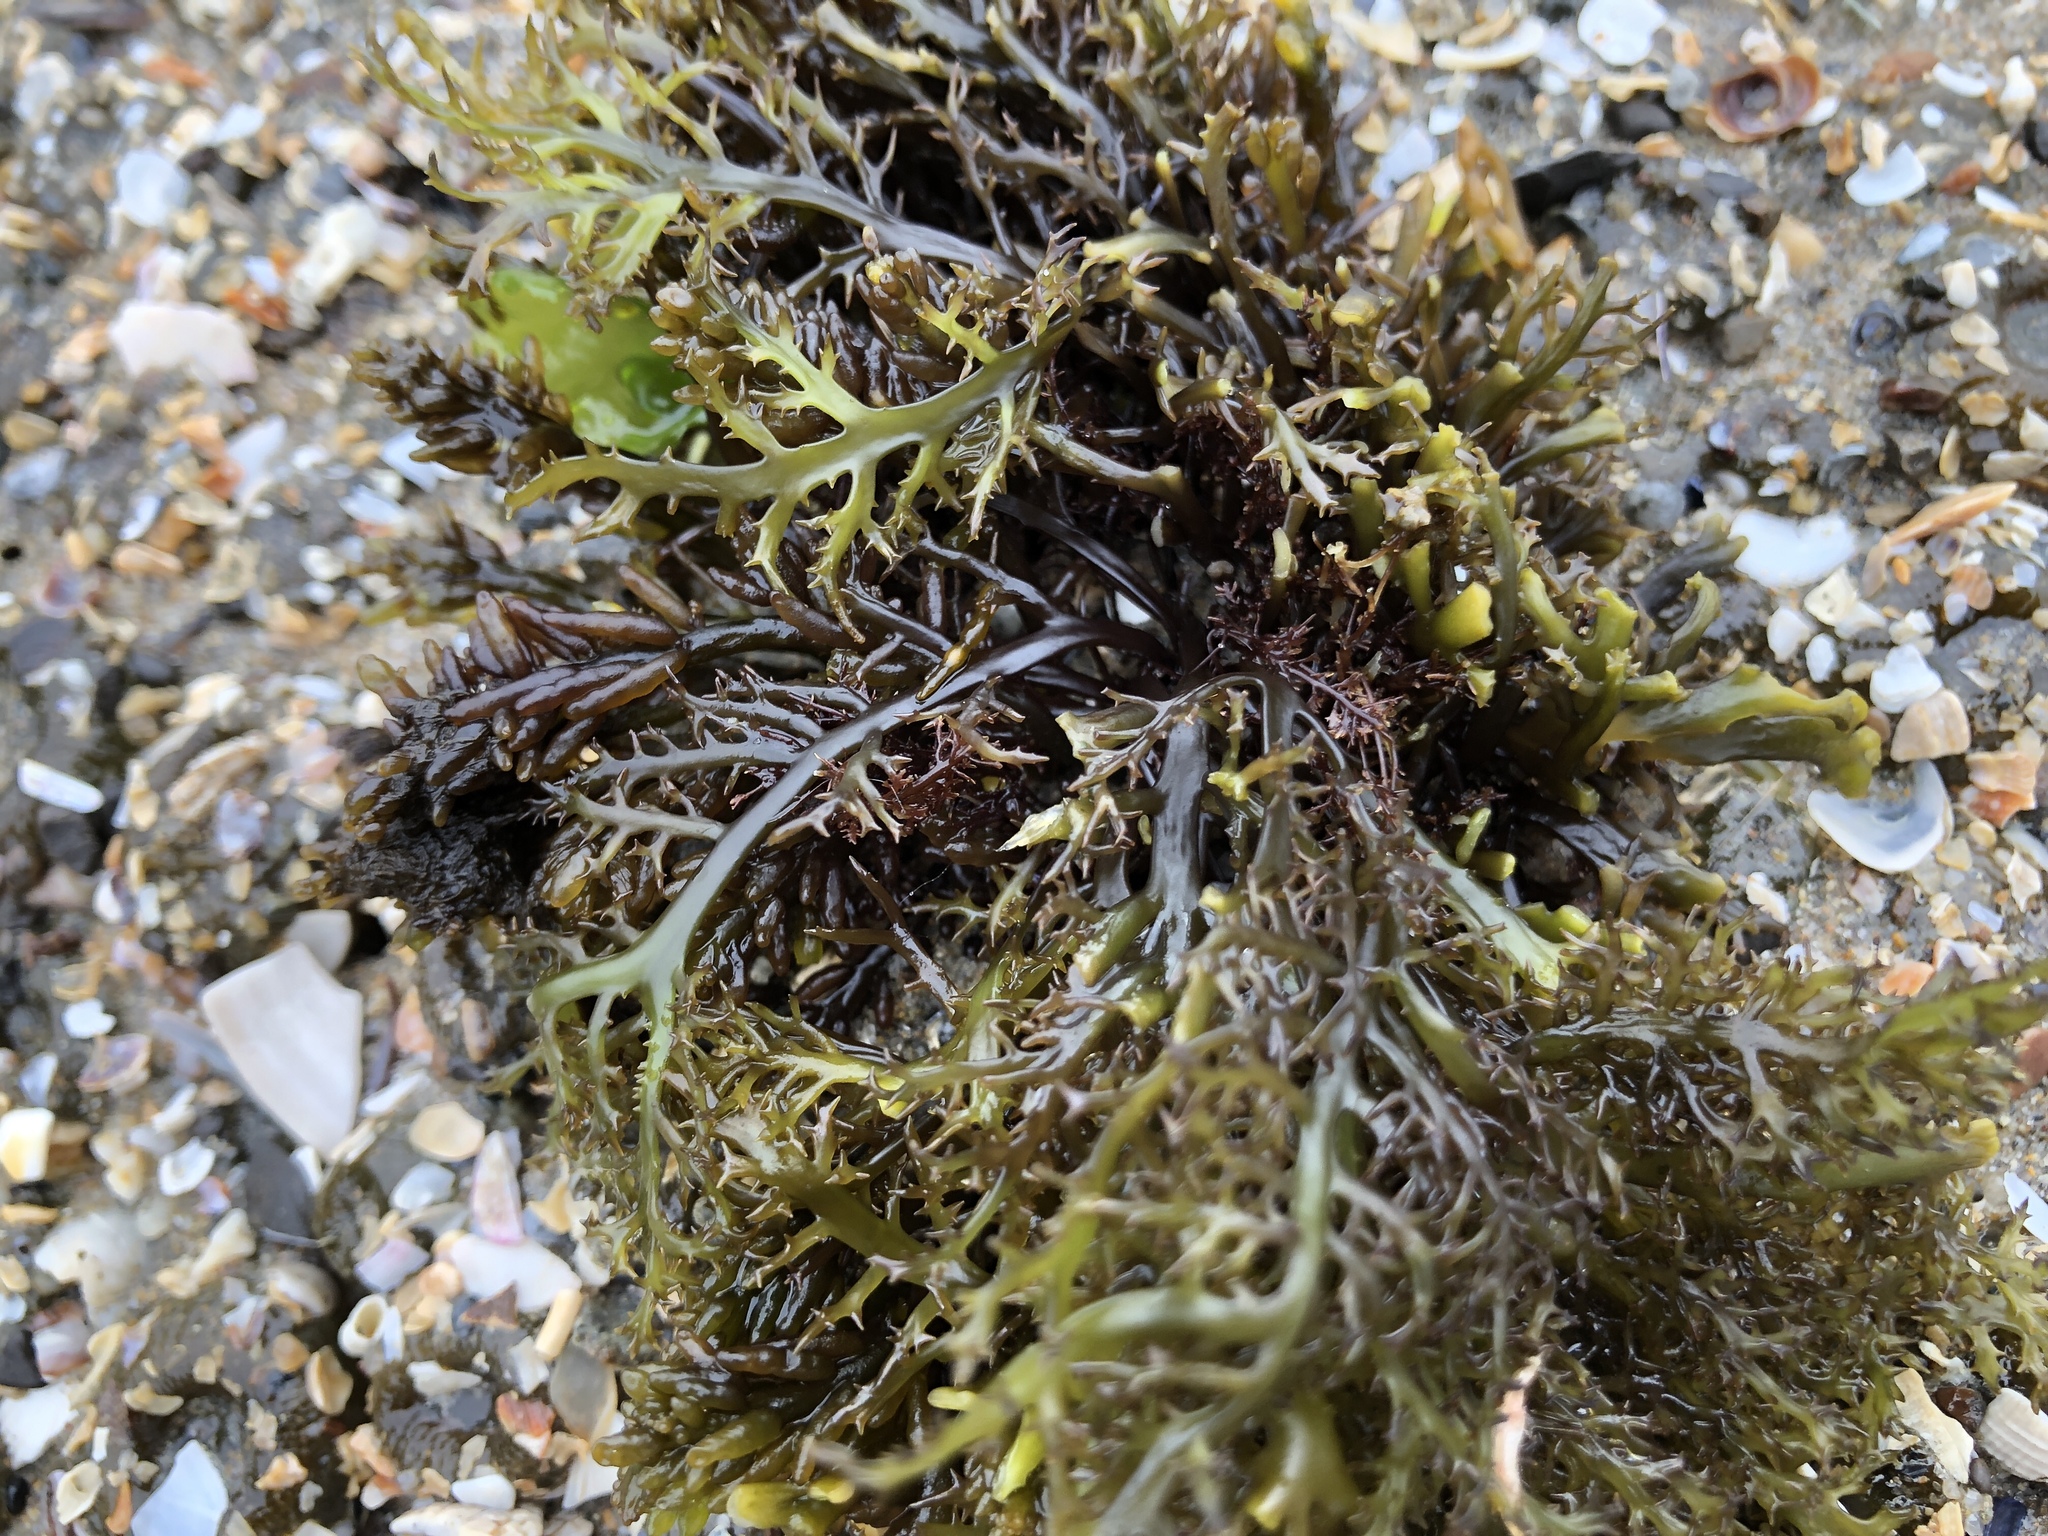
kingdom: Plantae
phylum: Rhodophyta
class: Florideophyceae
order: Gigartinales
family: Gigartinaceae
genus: Chondracanthus
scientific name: Chondracanthus canaliculatus
